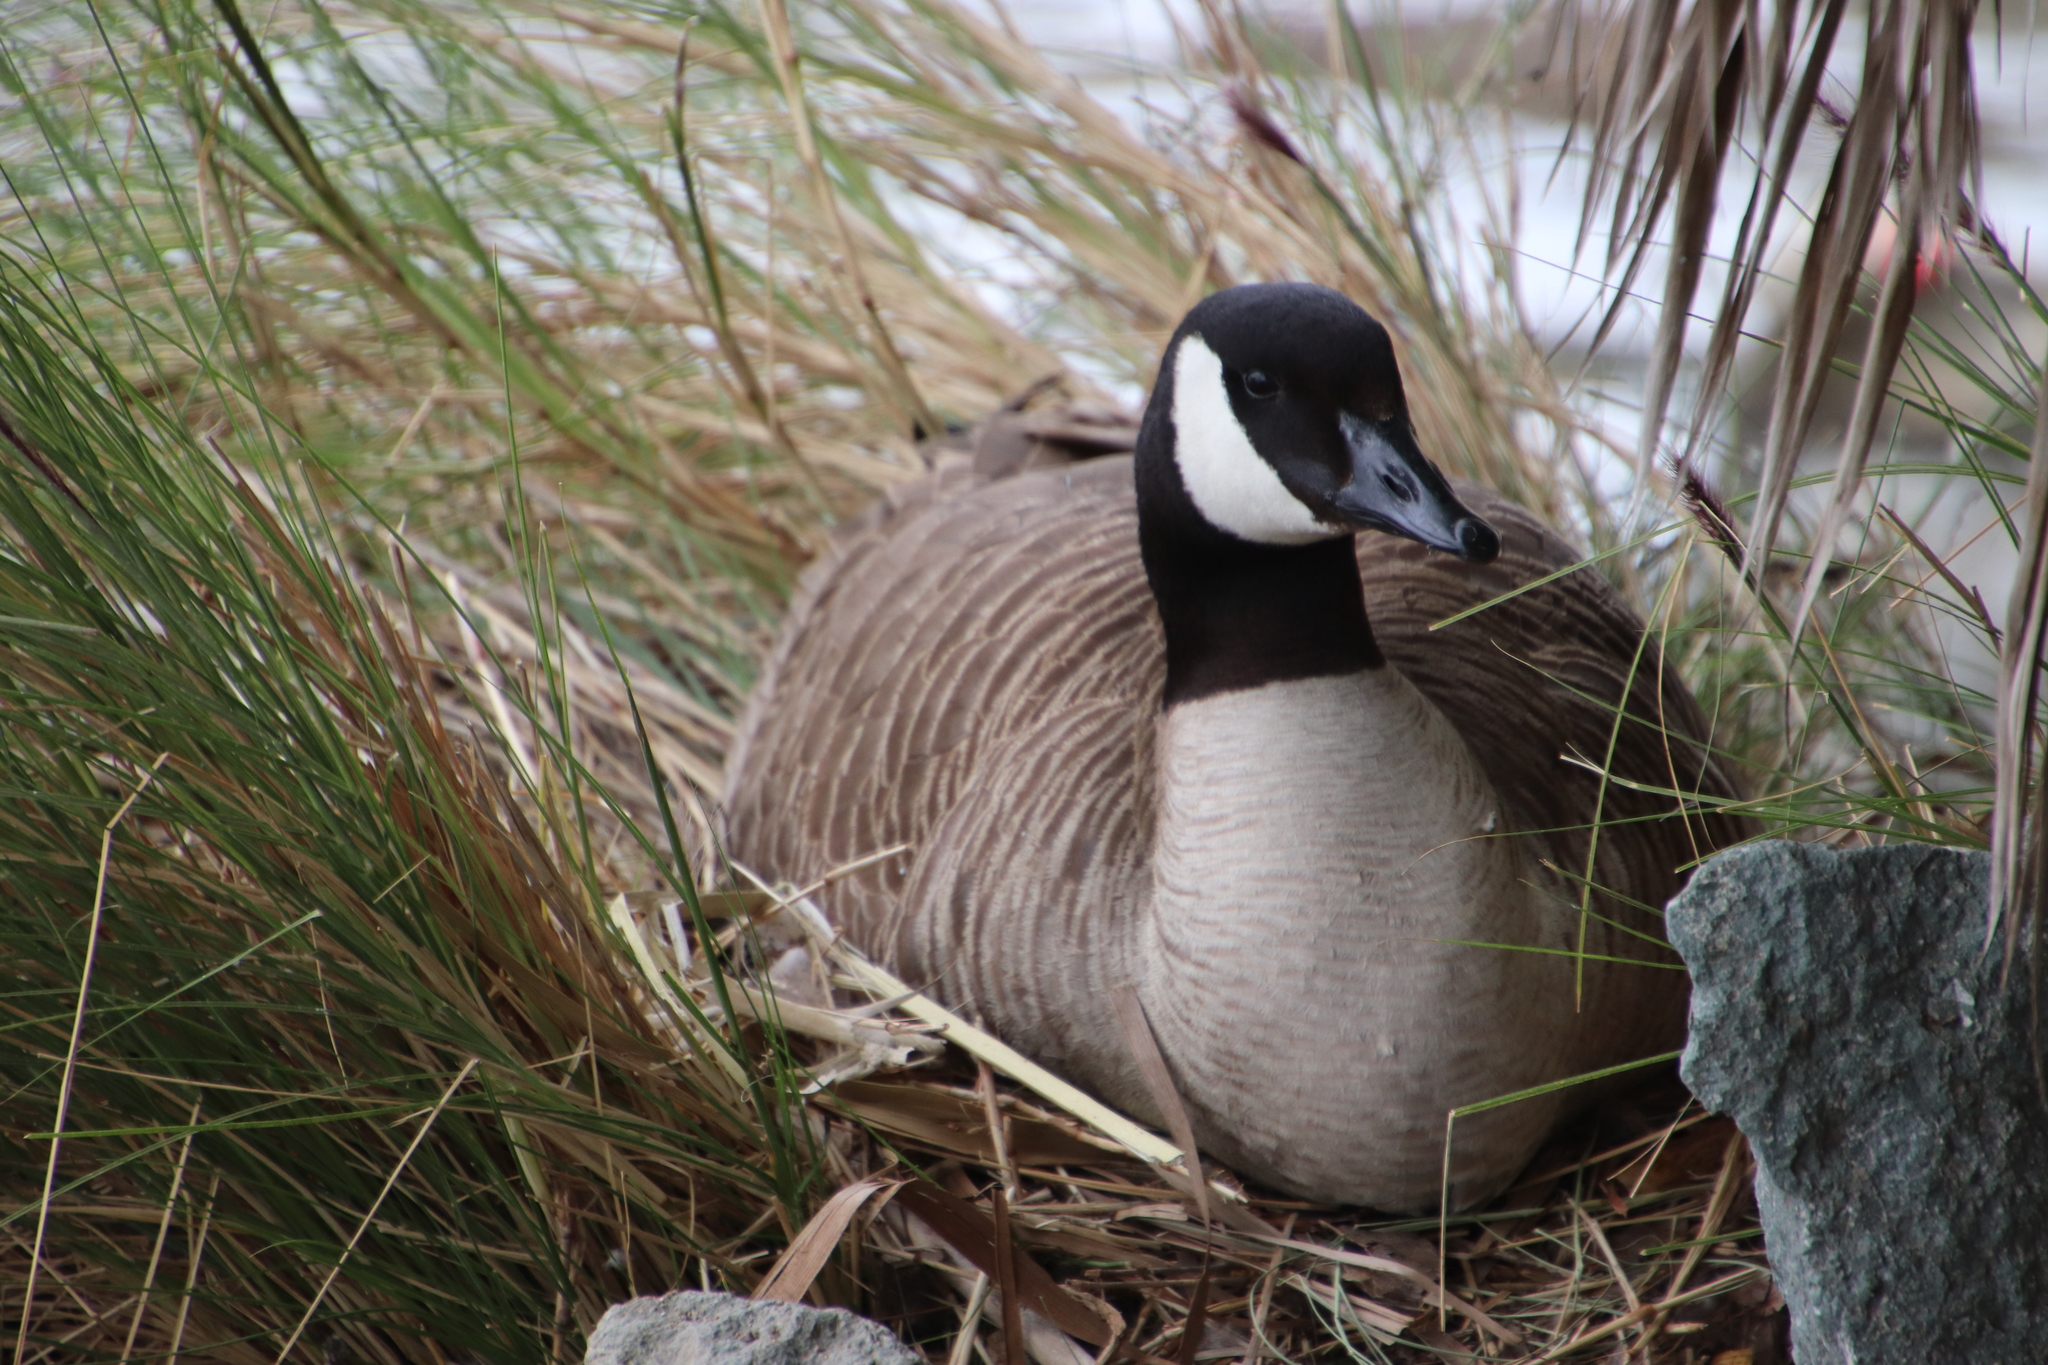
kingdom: Animalia
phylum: Chordata
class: Aves
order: Anseriformes
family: Anatidae
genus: Branta
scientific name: Branta canadensis
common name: Canada goose
